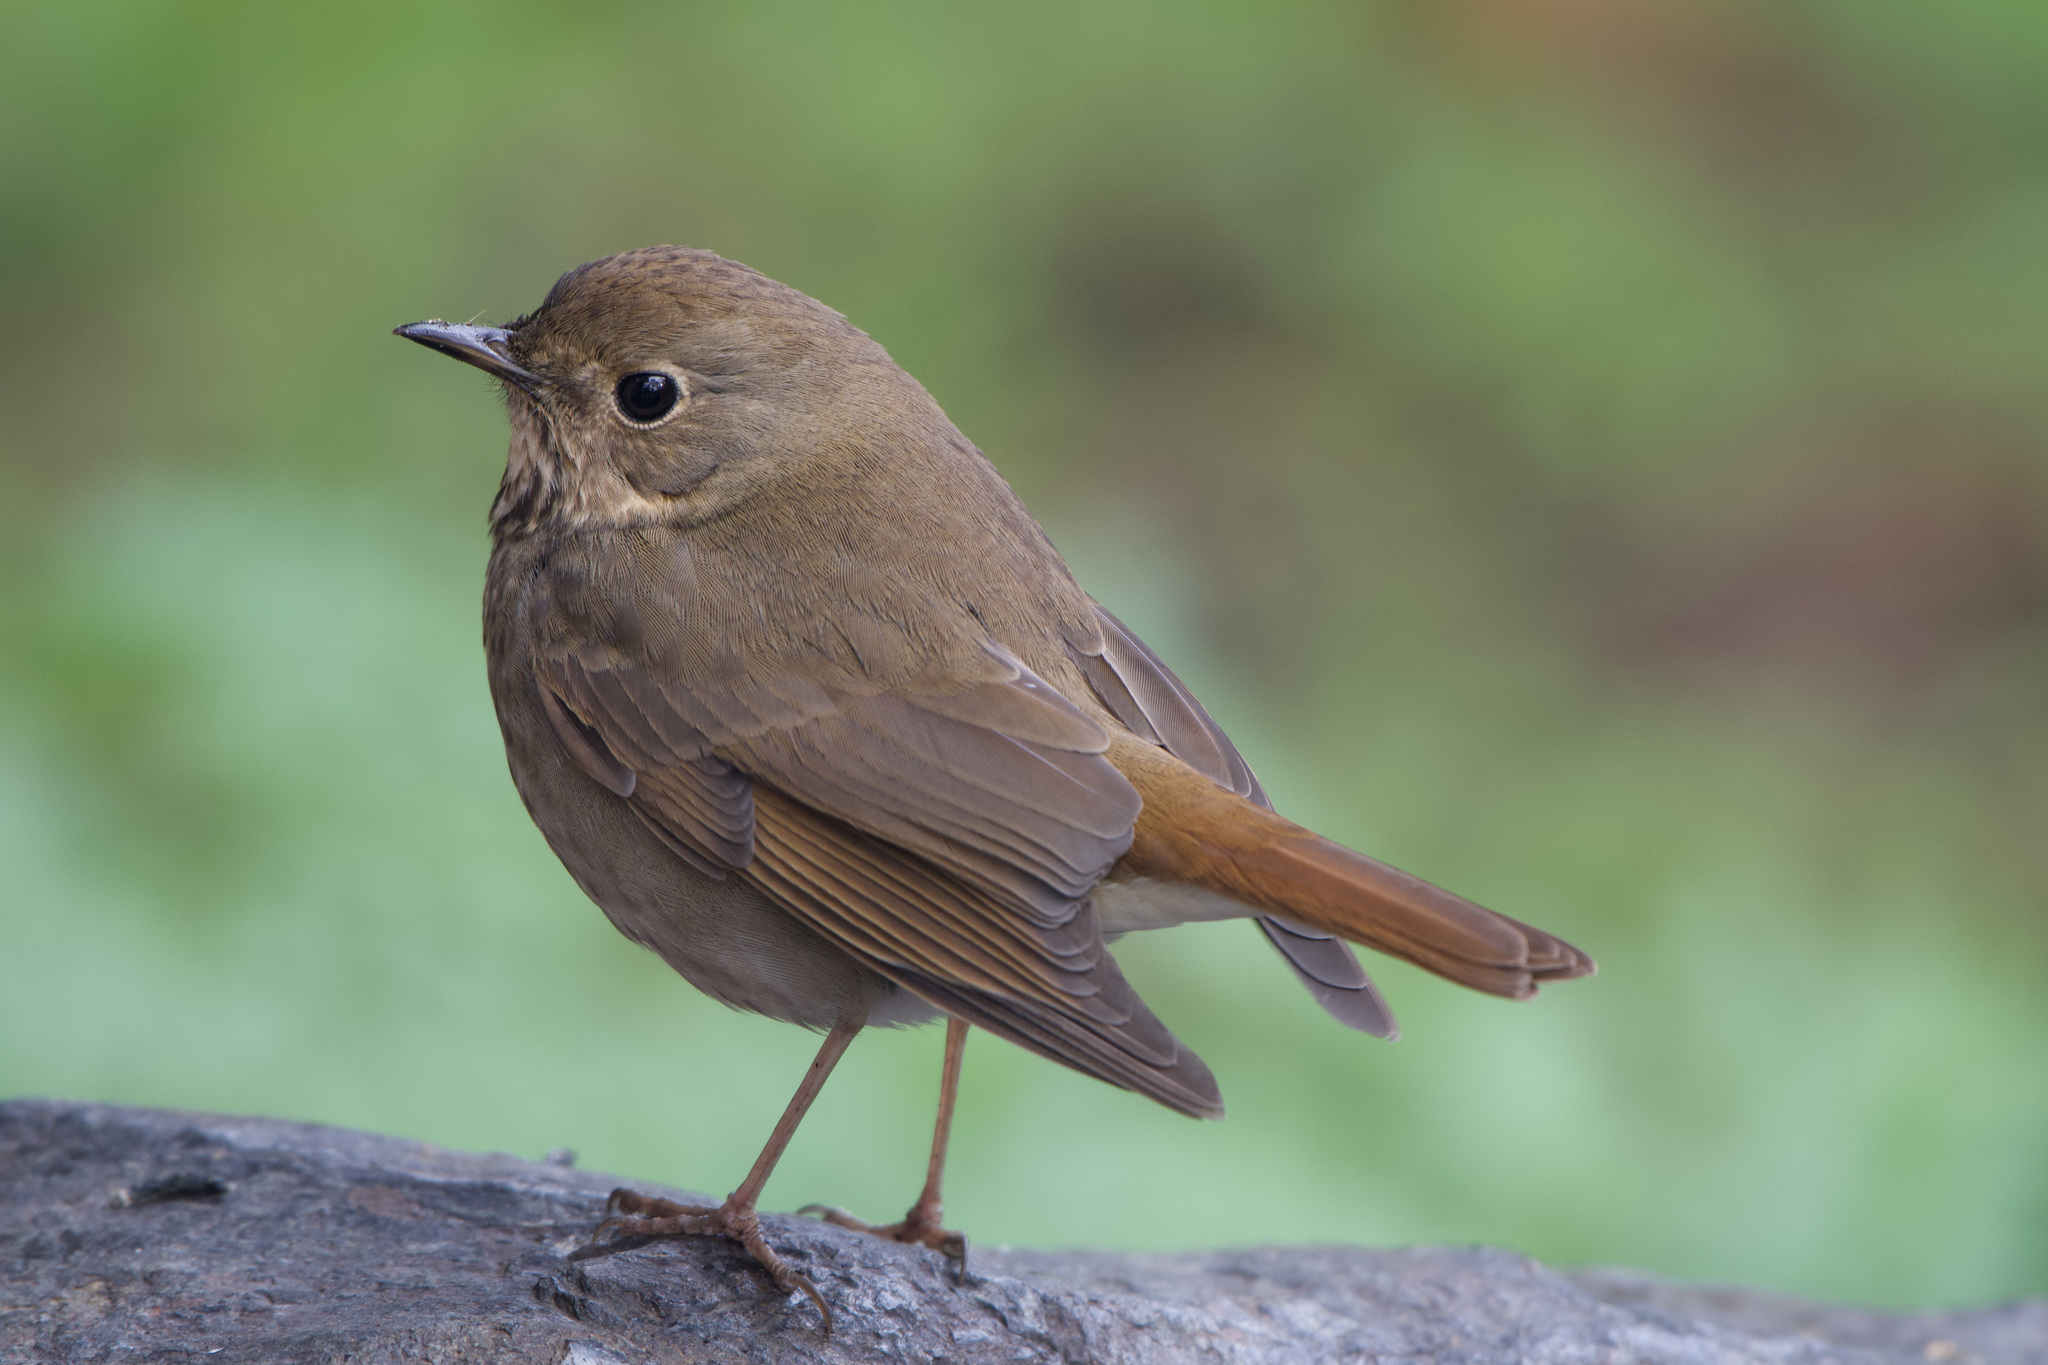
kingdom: Animalia
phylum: Chordata
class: Aves
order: Passeriformes
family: Turdidae
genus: Catharus
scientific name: Catharus guttatus
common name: Hermit thrush
